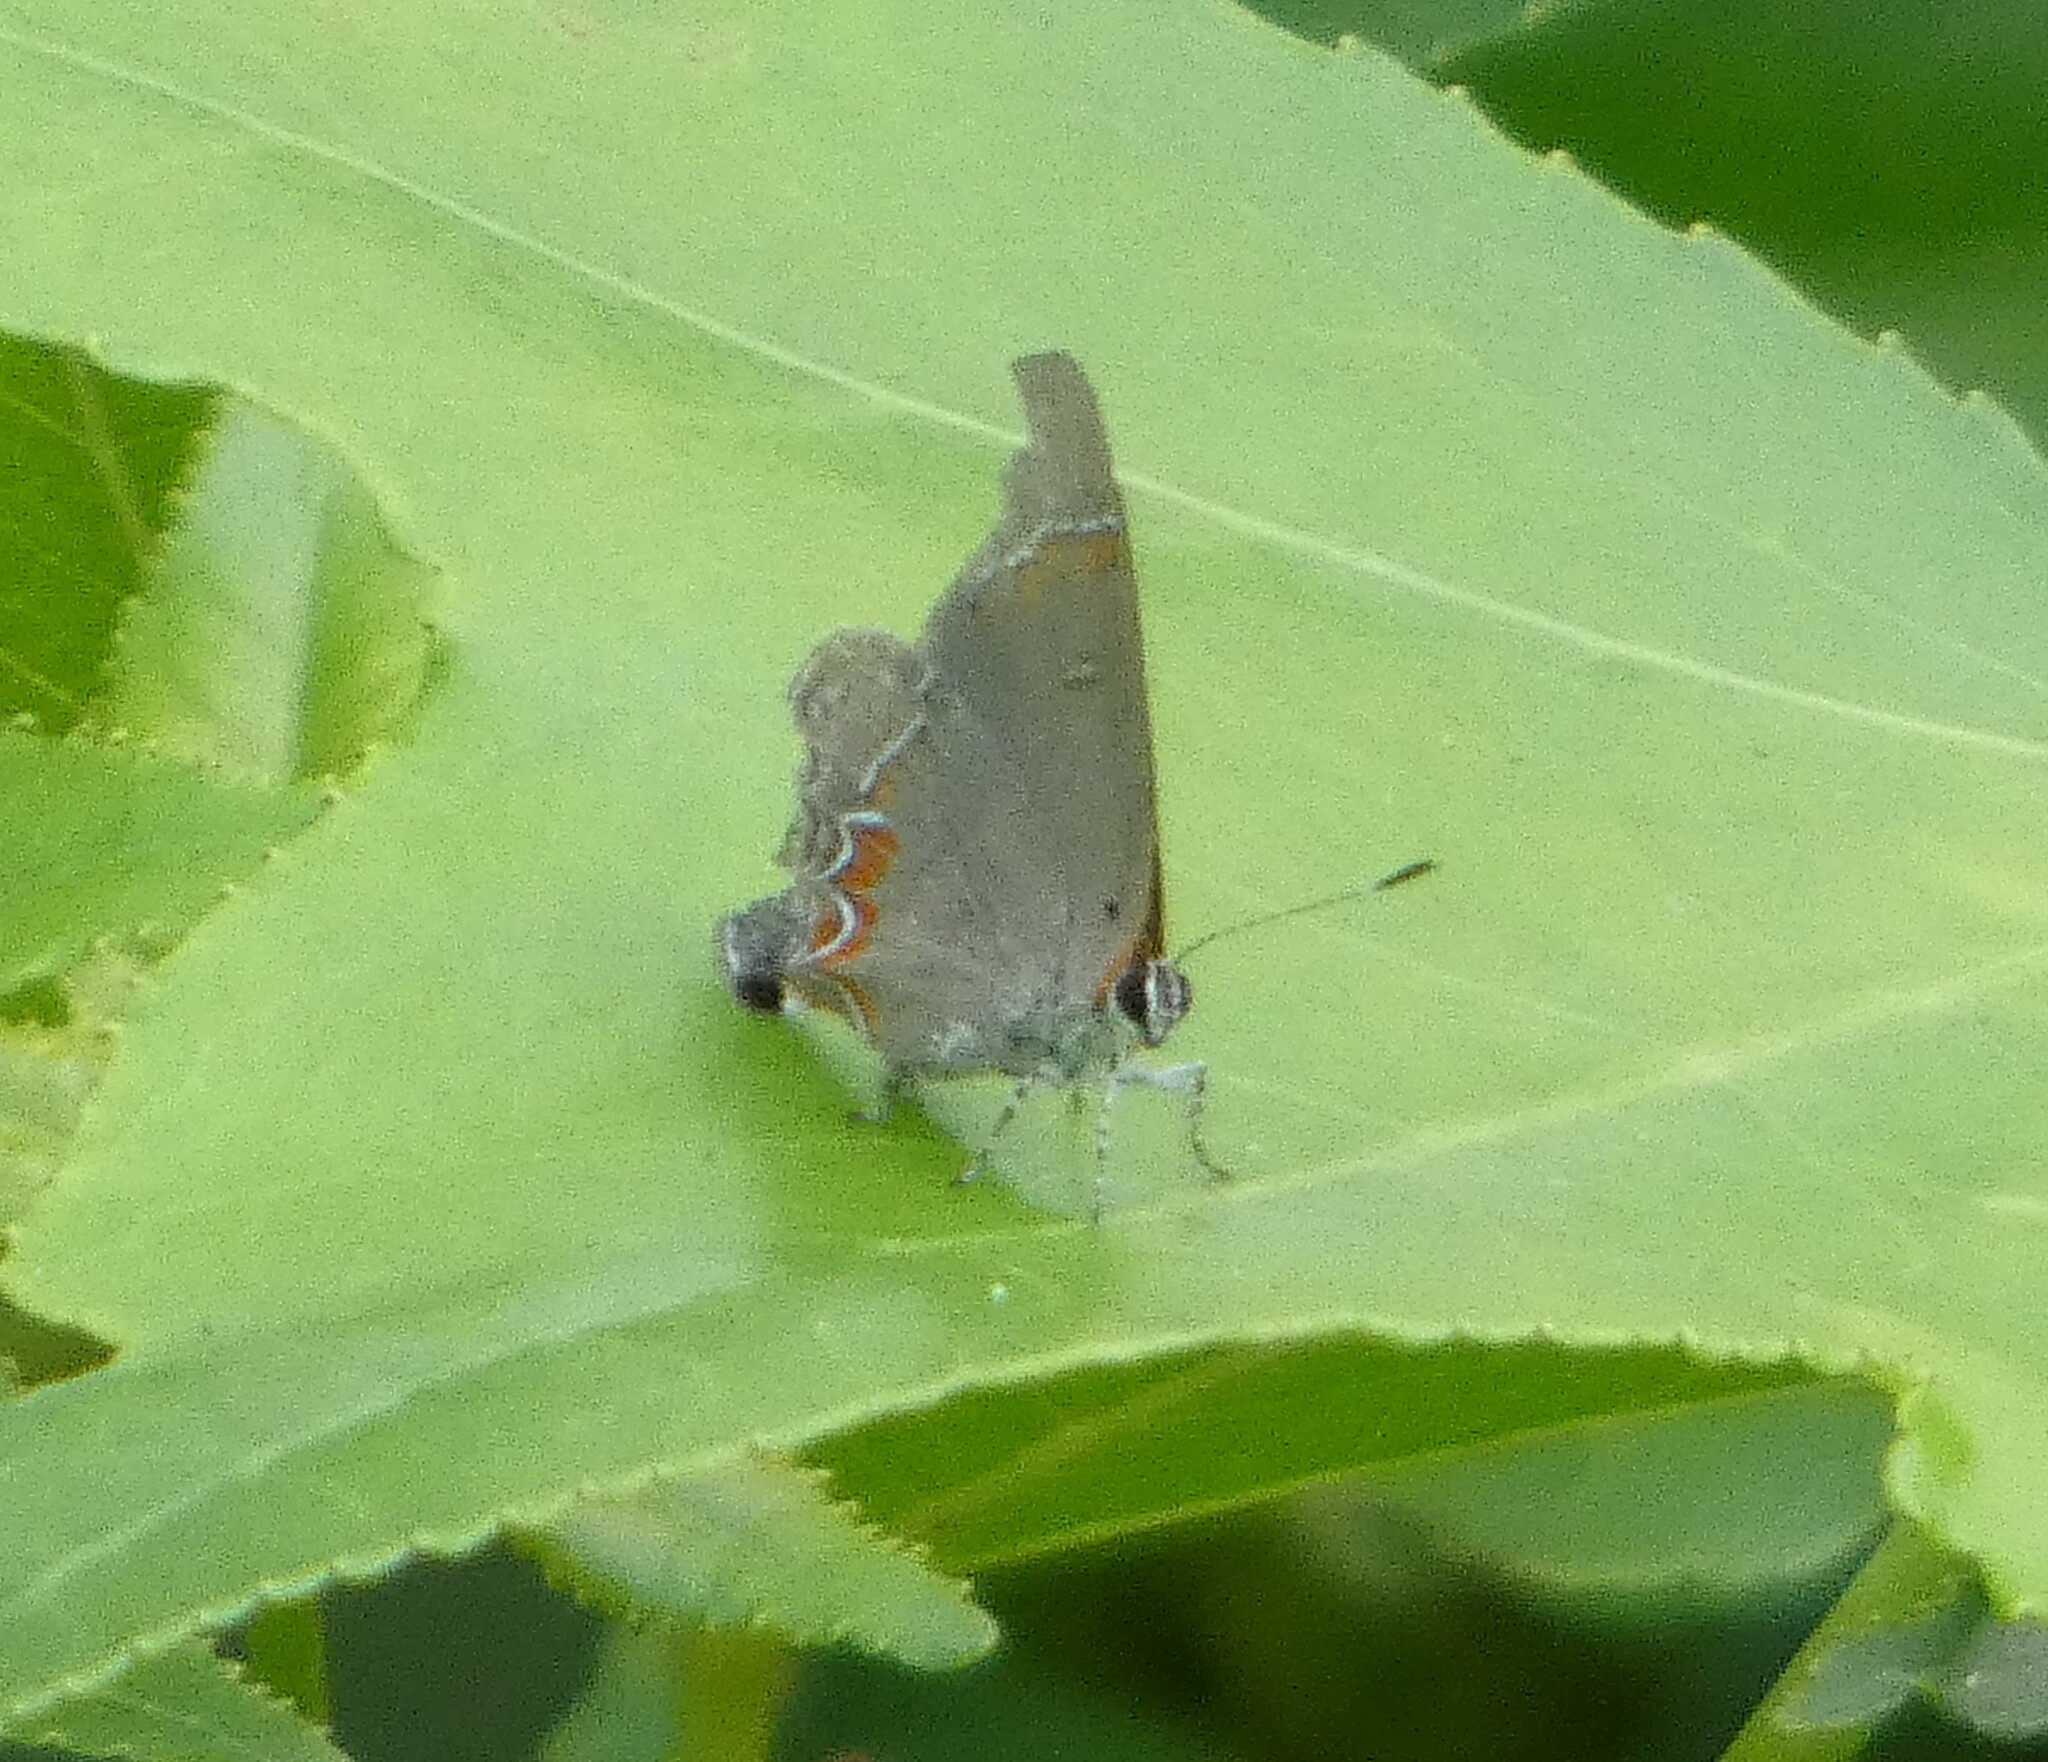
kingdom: Animalia
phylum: Arthropoda
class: Insecta
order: Lepidoptera
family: Lycaenidae
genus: Calycopis
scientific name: Calycopis cecrops
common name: Red-banded hairstreak
